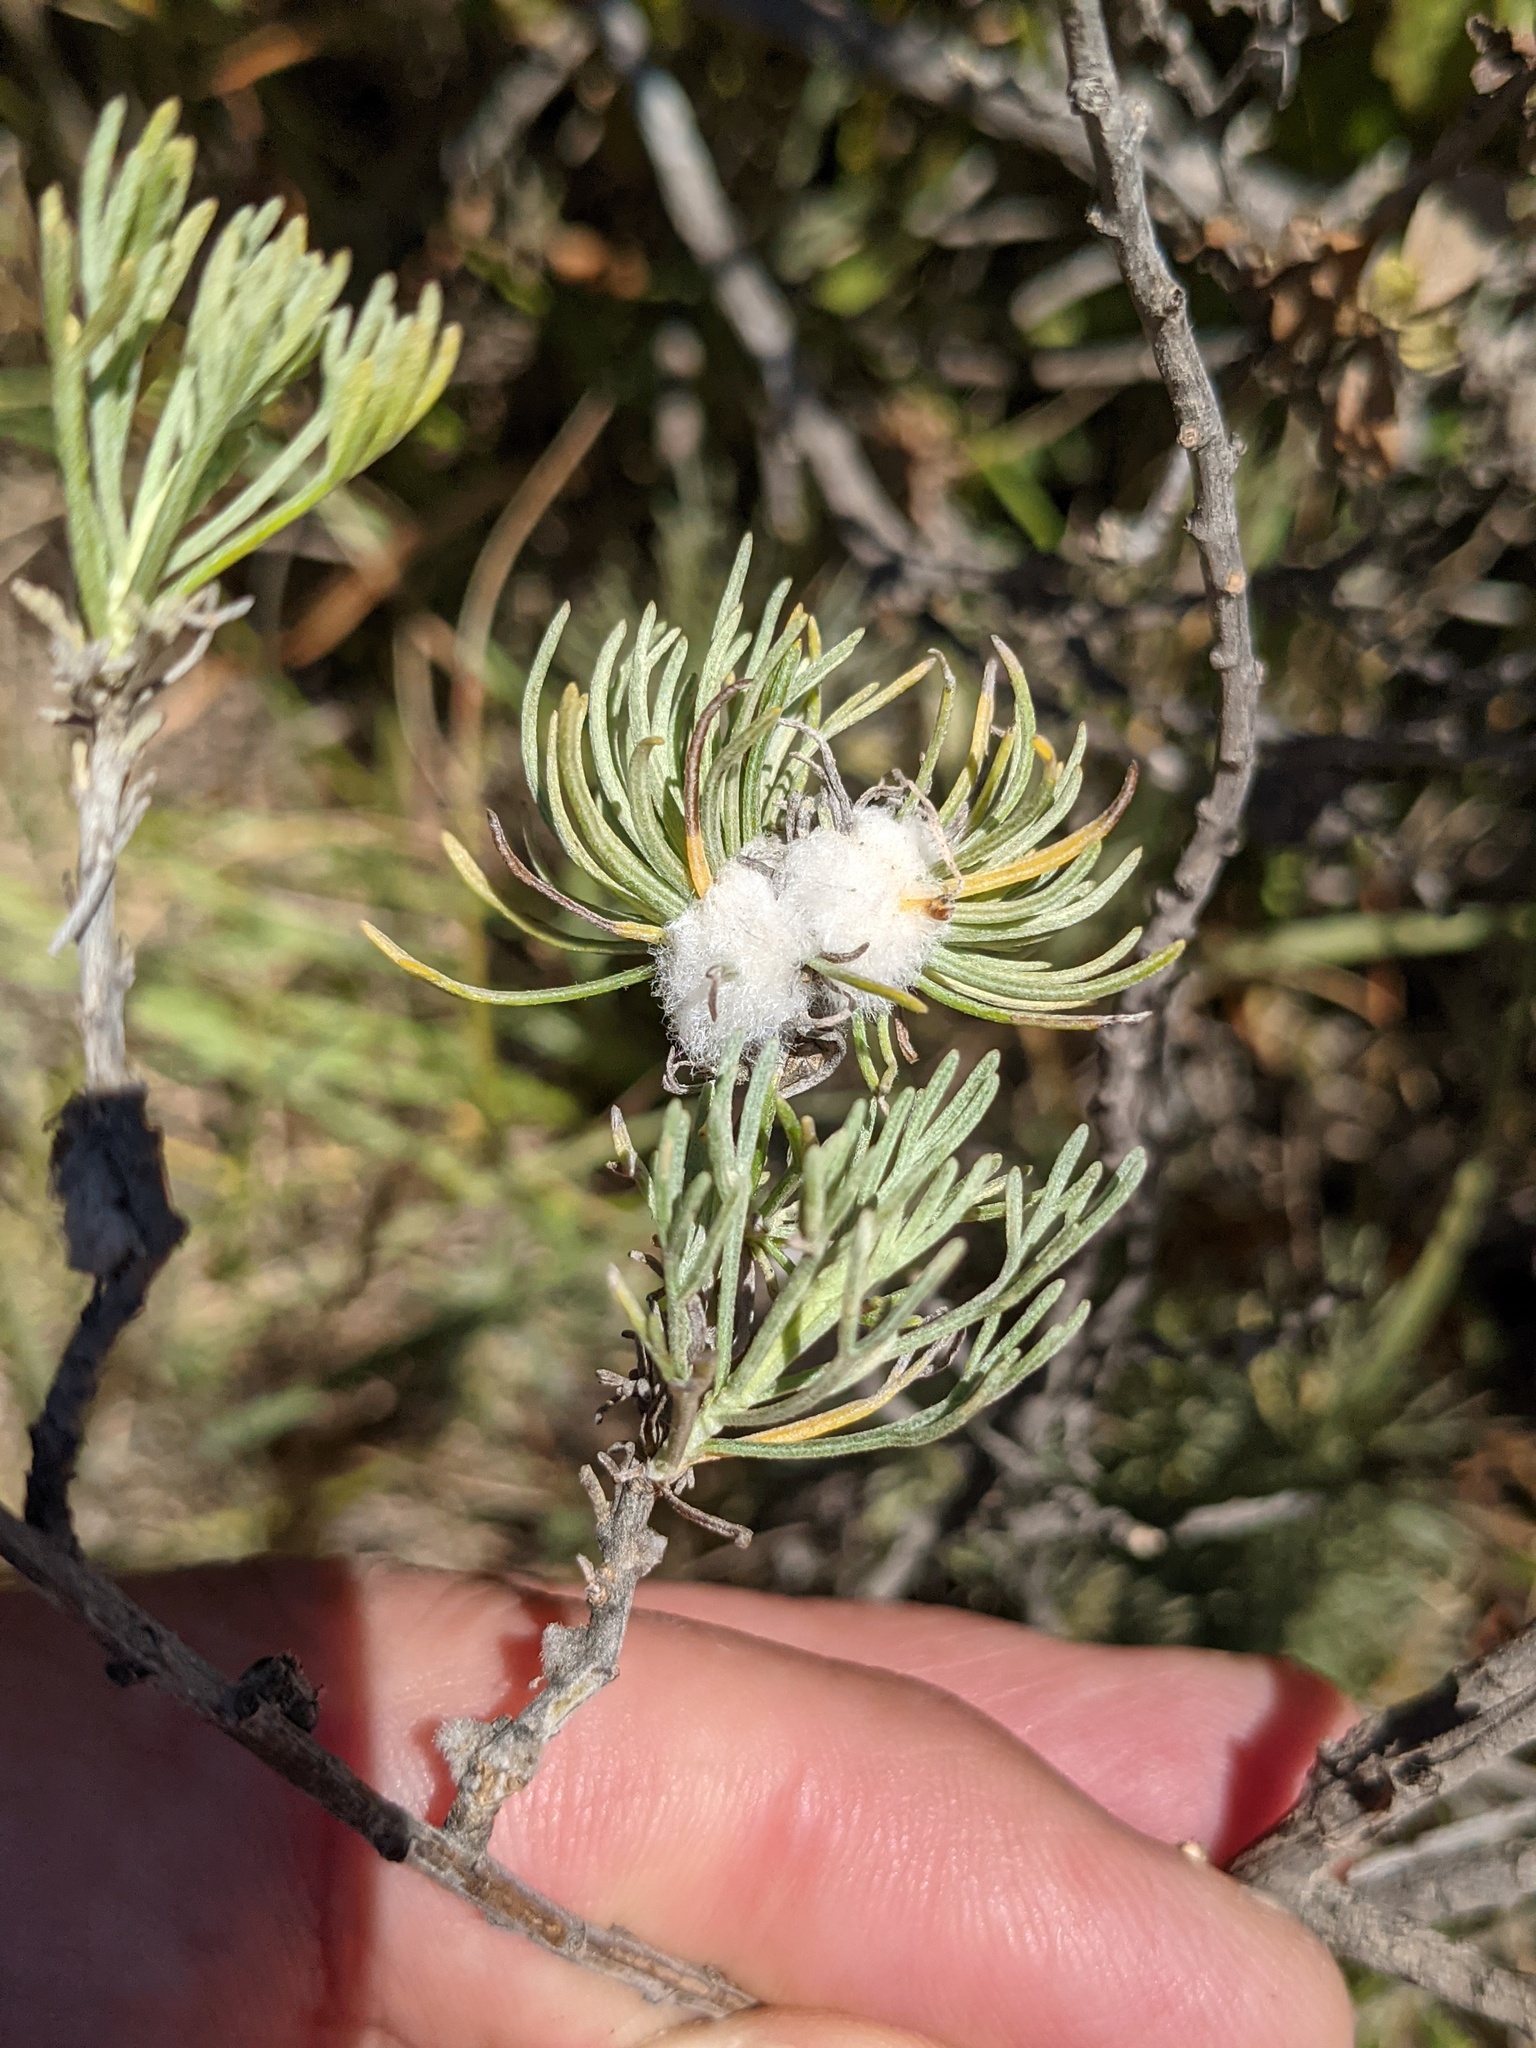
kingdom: Animalia
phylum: Arthropoda
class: Insecta
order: Diptera
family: Cecidomyiidae
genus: Rhopalomyia
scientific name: Rhopalomyia floccosa
